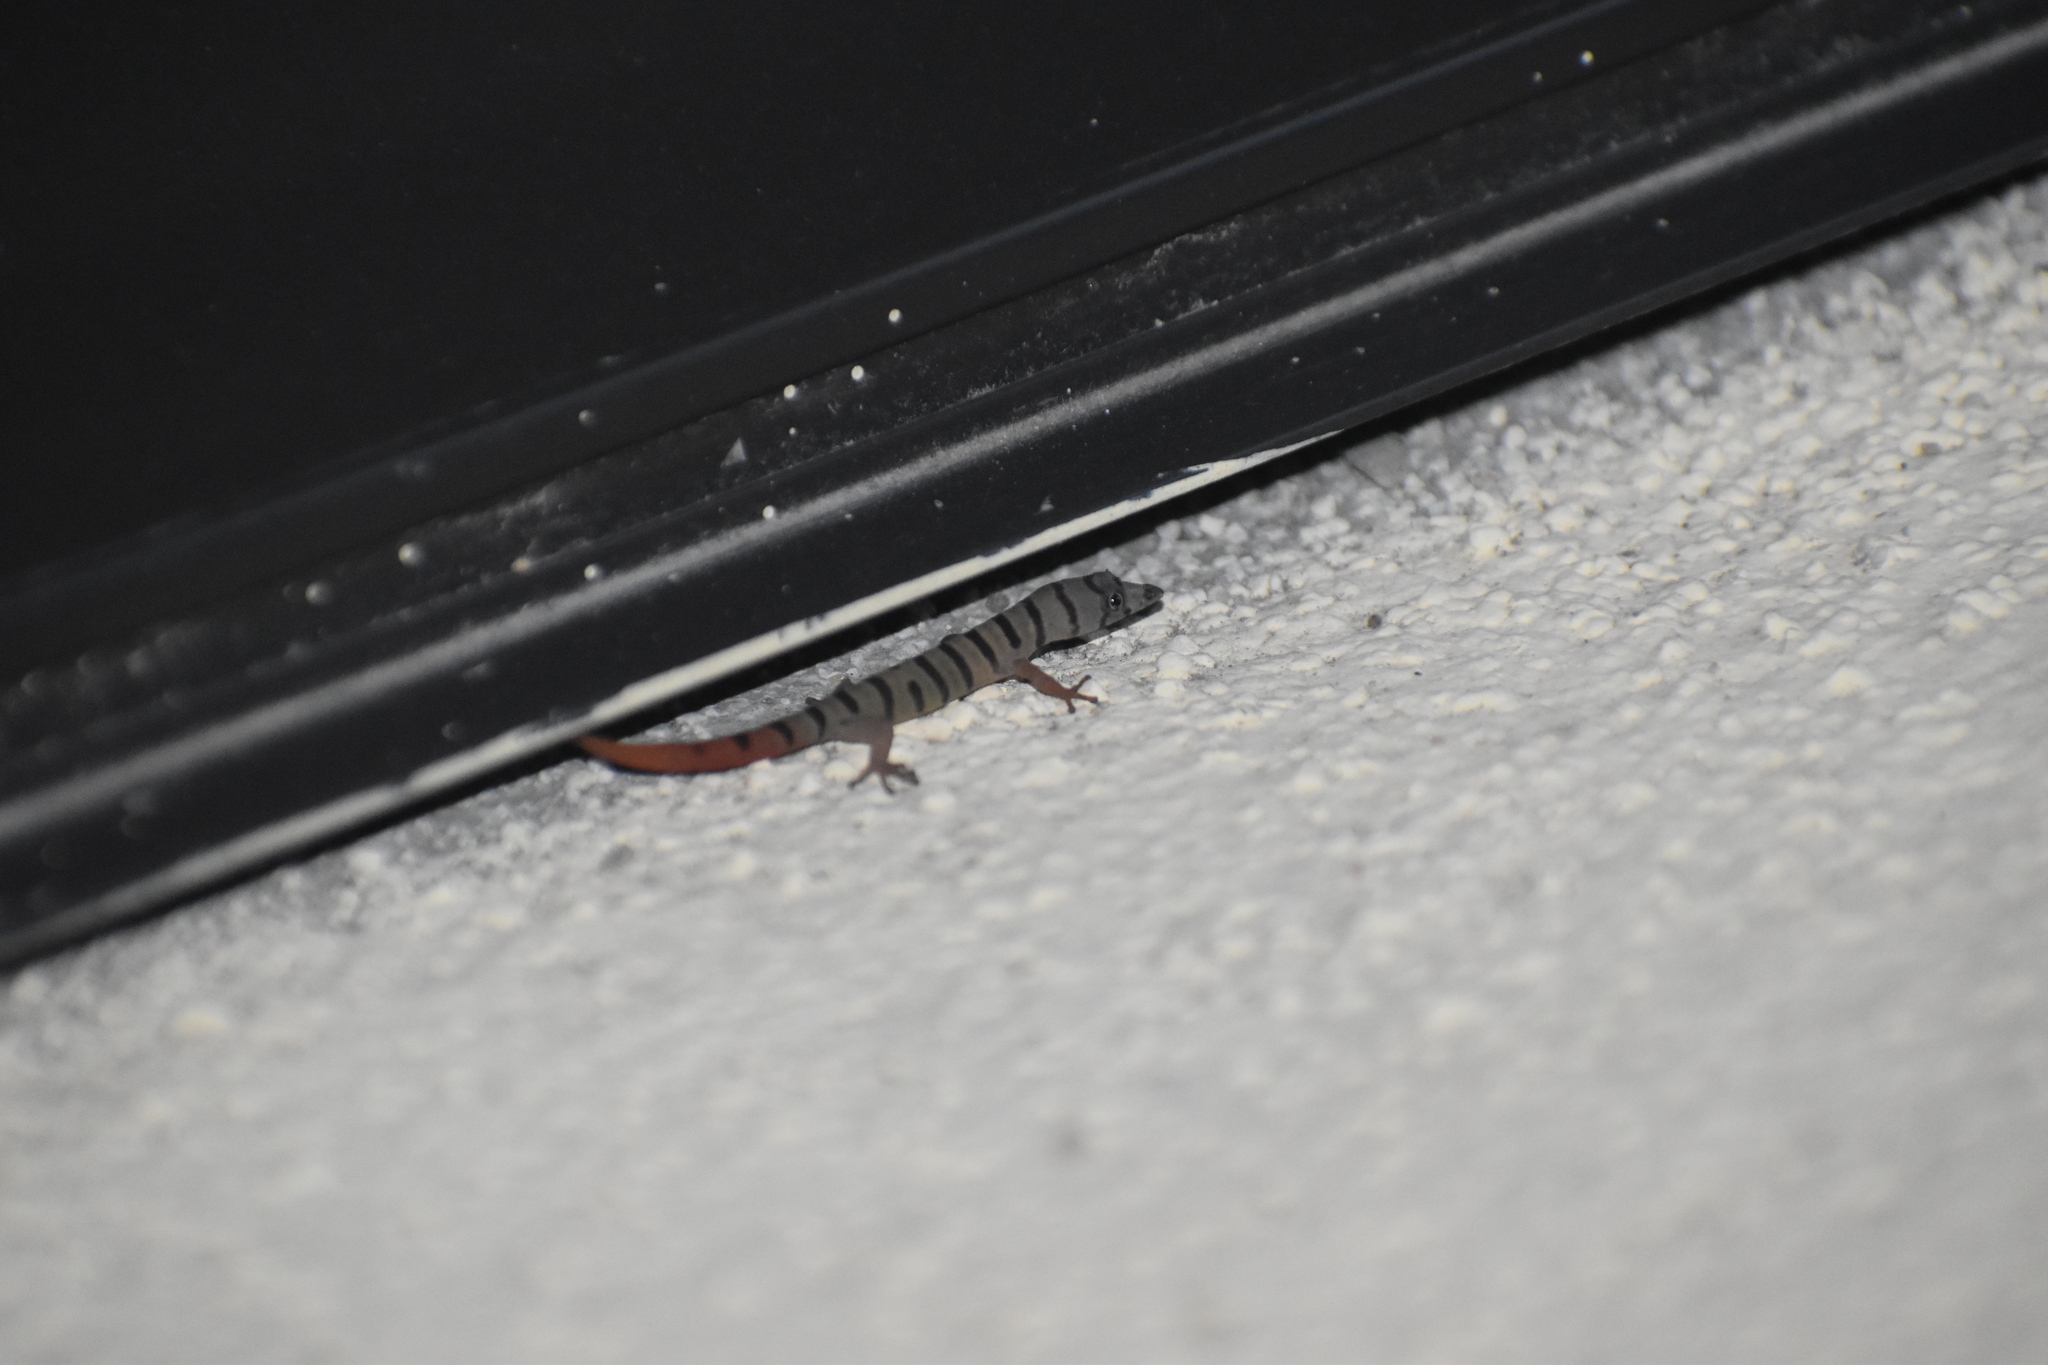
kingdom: Animalia
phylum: Chordata
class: Squamata
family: Sphaerodactylidae
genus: Sphaerodactylus
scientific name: Sphaerodactylus elegans
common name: Ashy gecko
